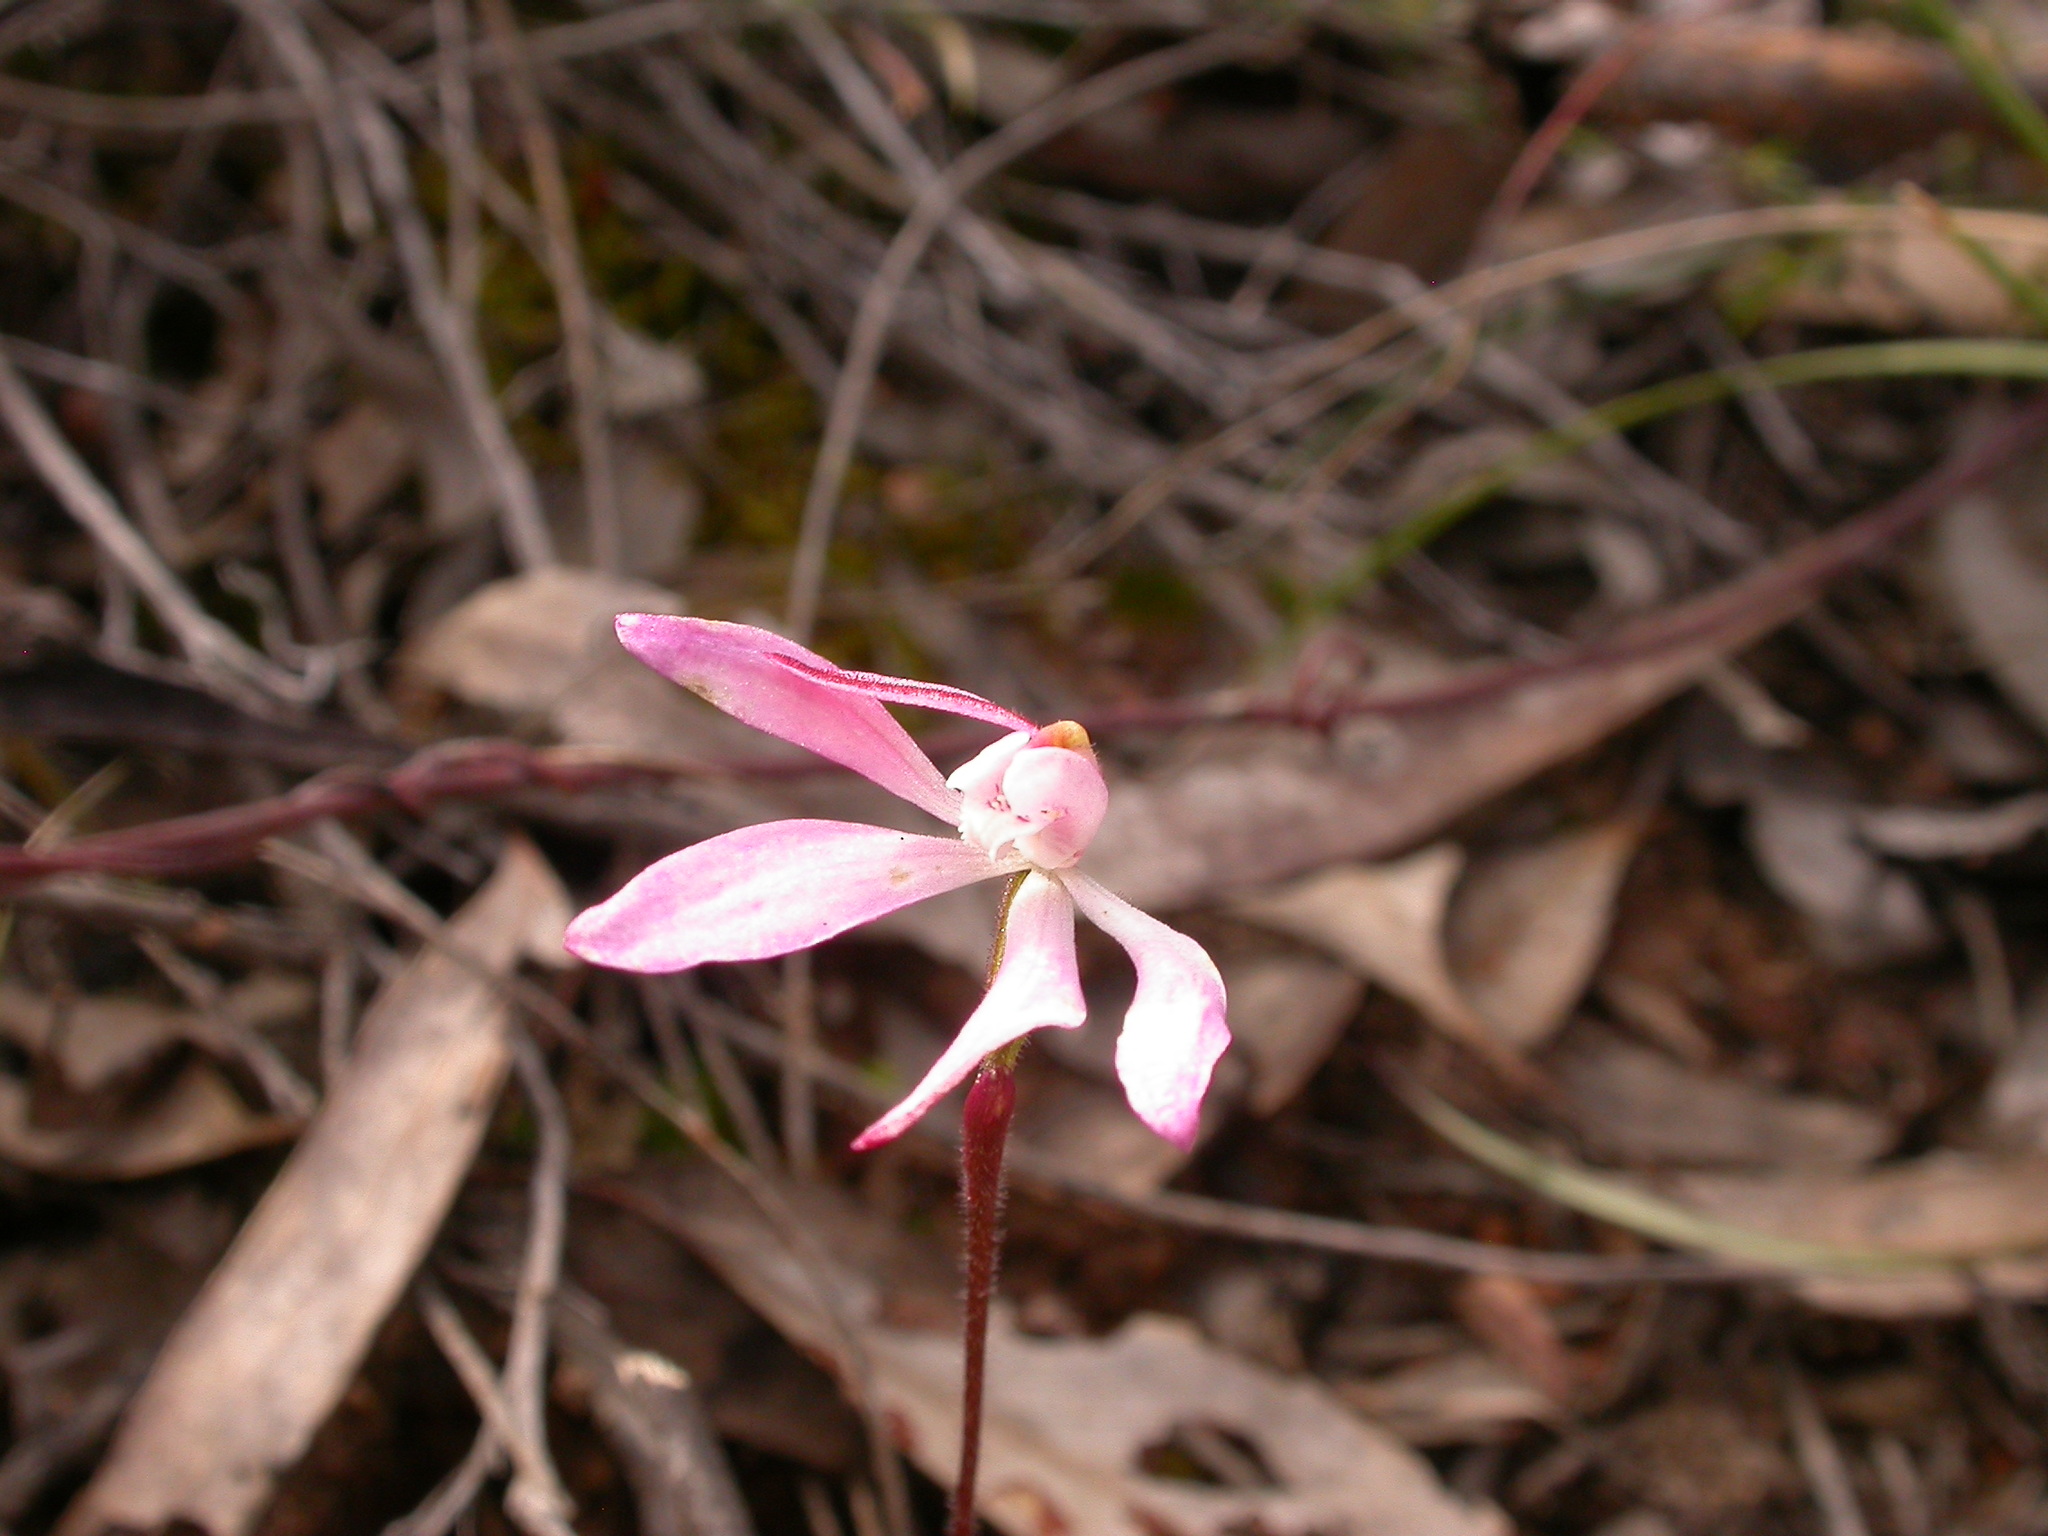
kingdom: Plantae
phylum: Tracheophyta
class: Liliopsida
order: Asparagales
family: Orchidaceae
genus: Caladenia
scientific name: Caladenia fuscata
